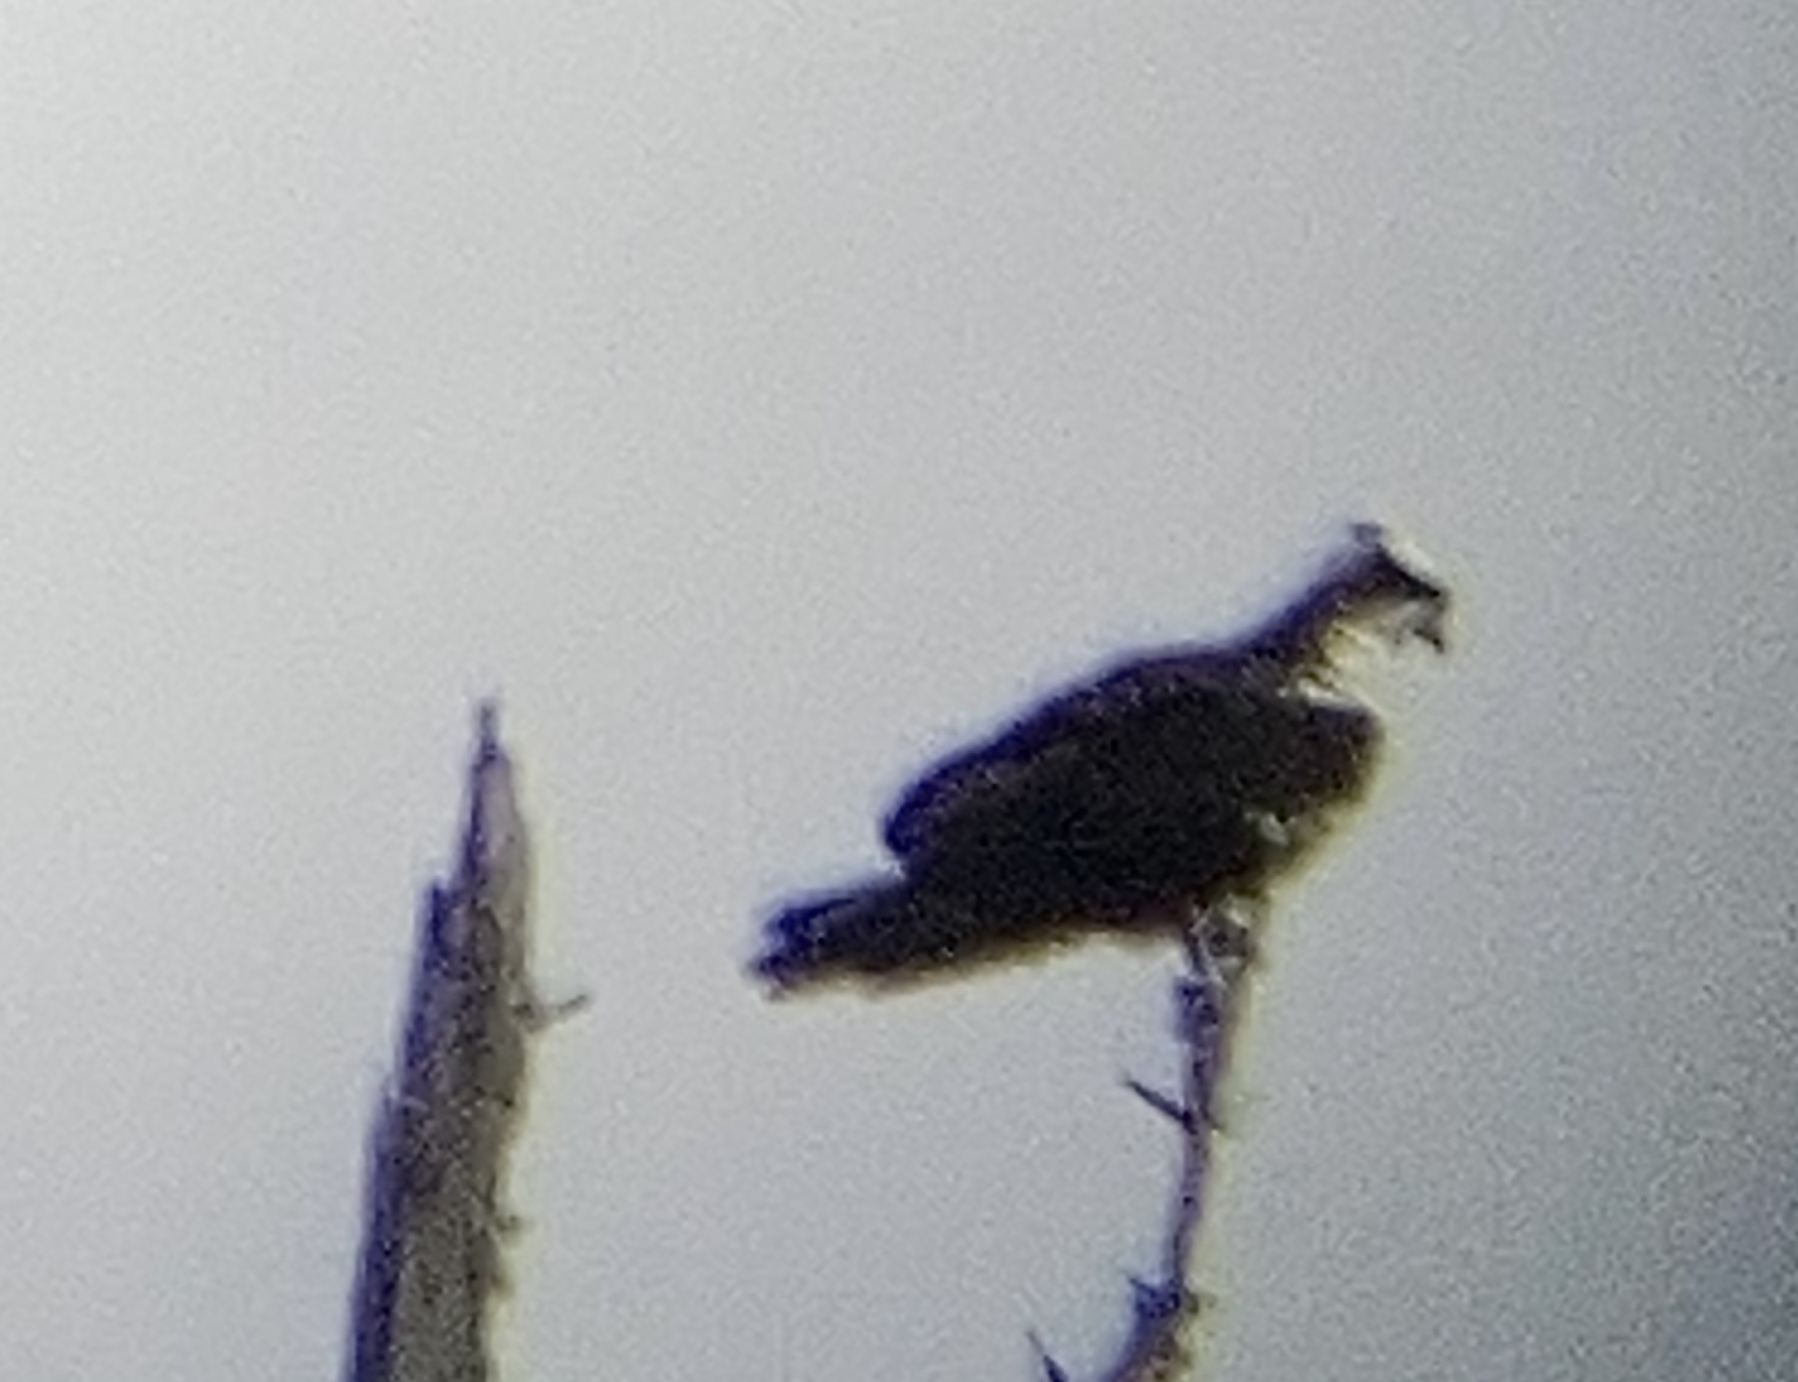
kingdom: Animalia
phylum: Chordata
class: Aves
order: Accipitriformes
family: Pandionidae
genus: Pandion
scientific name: Pandion haliaetus
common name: Osprey
